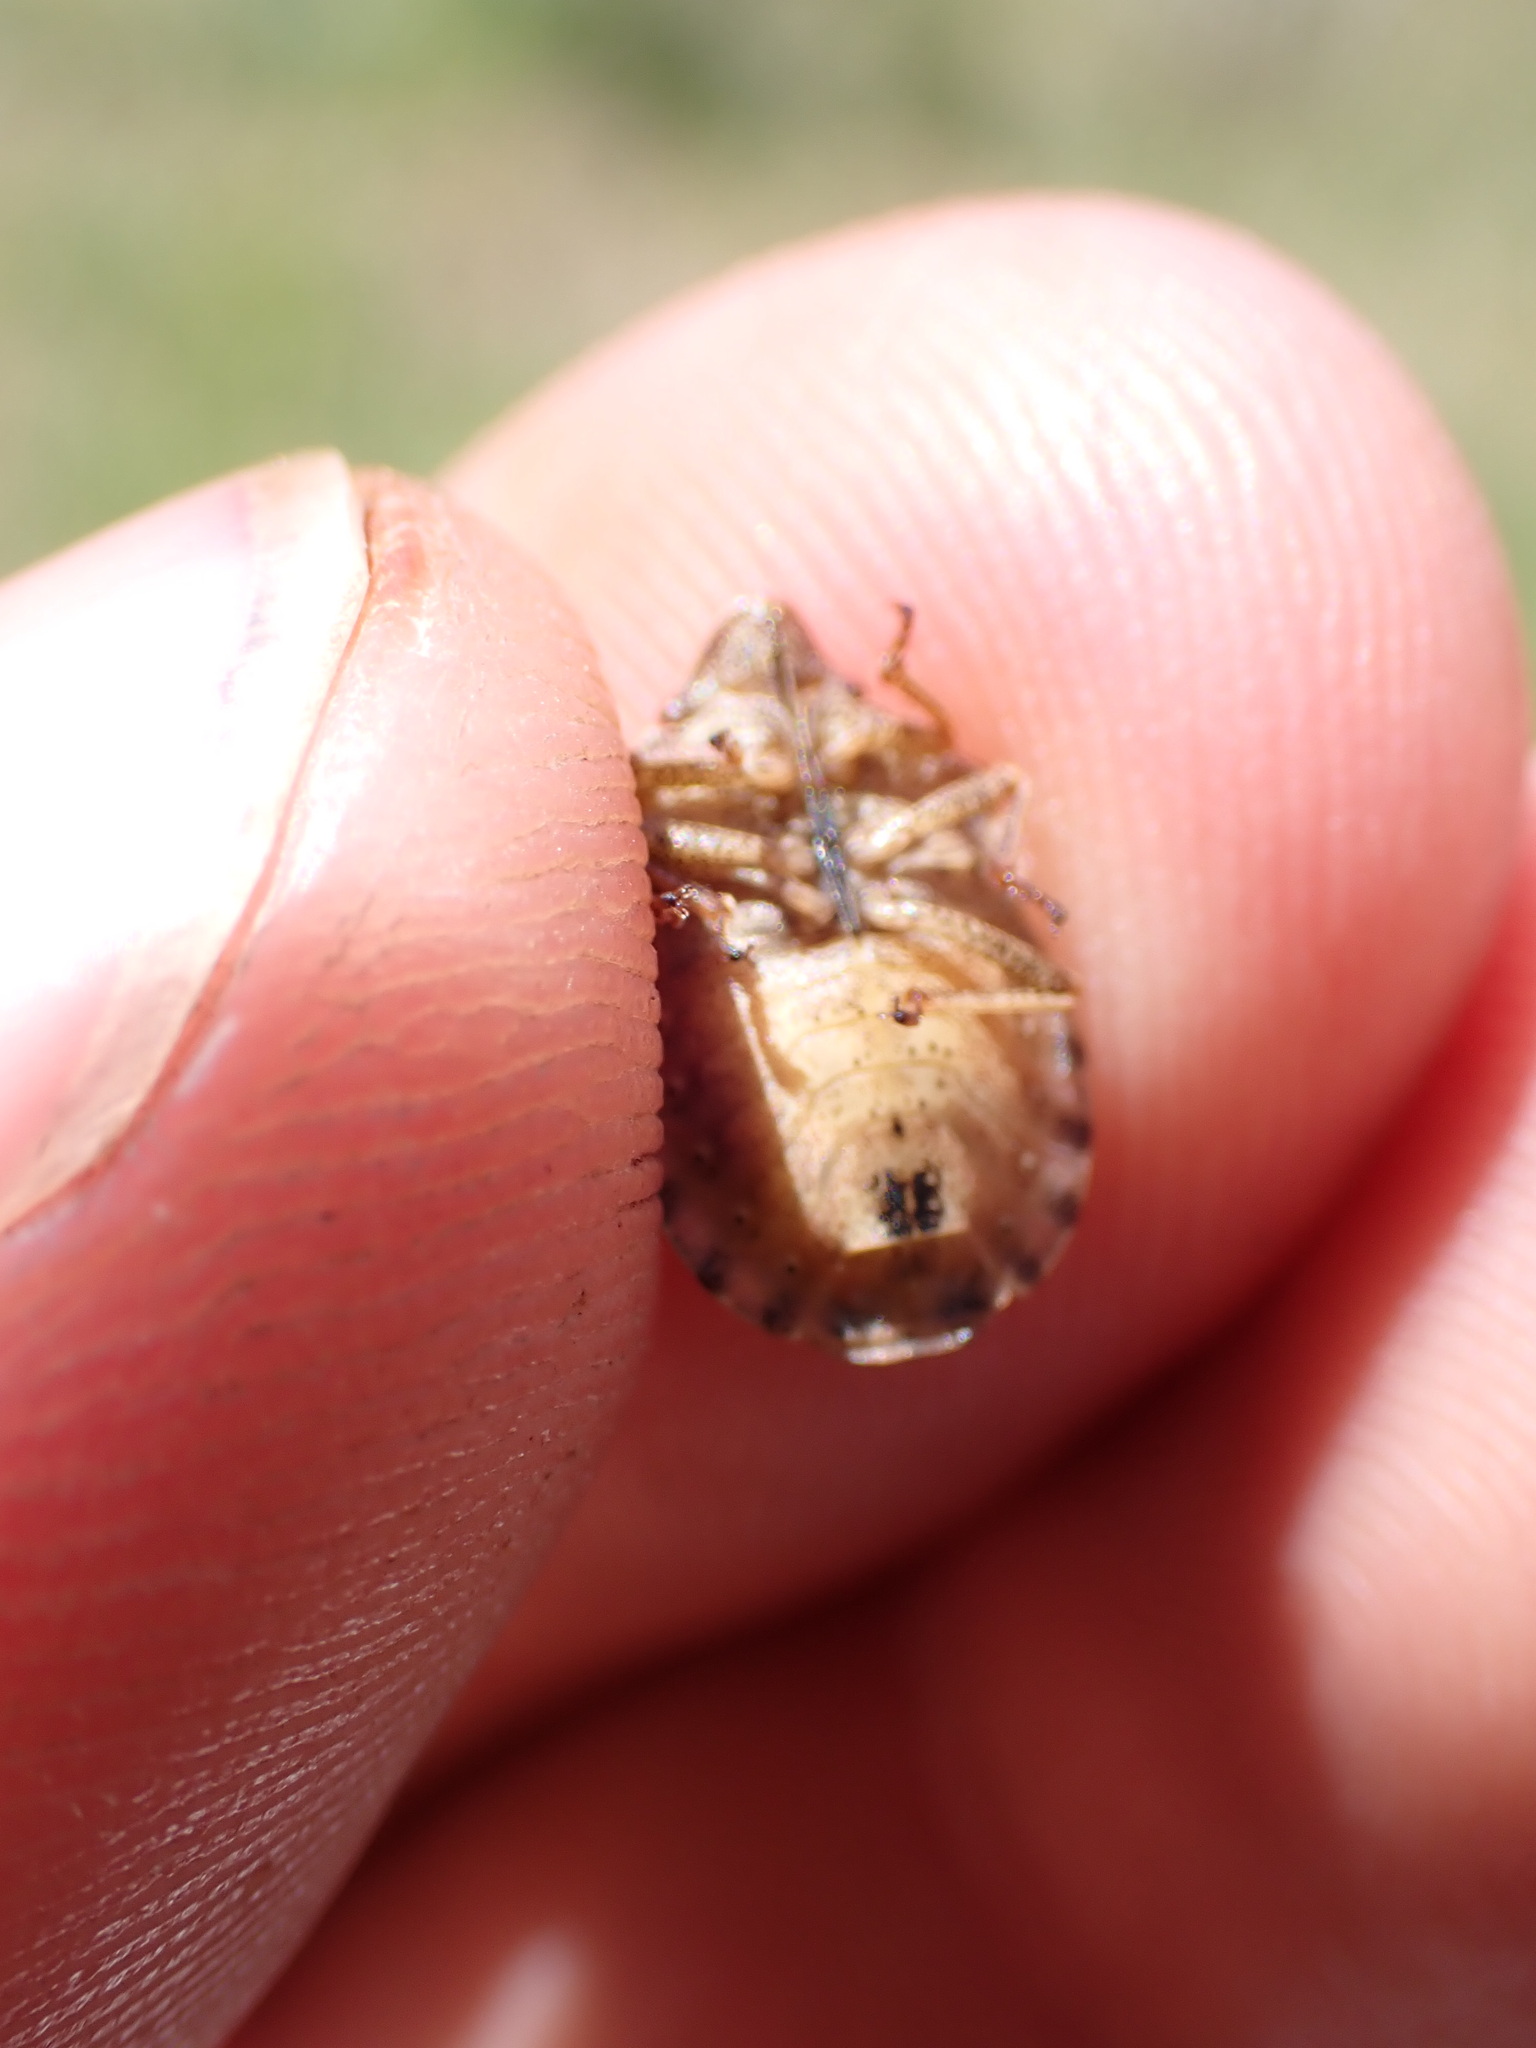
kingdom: Animalia
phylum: Arthropoda
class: Insecta
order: Hemiptera
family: Scutelleridae
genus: Eurygaster
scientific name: Eurygaster testudinaria
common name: Tortoise bug
